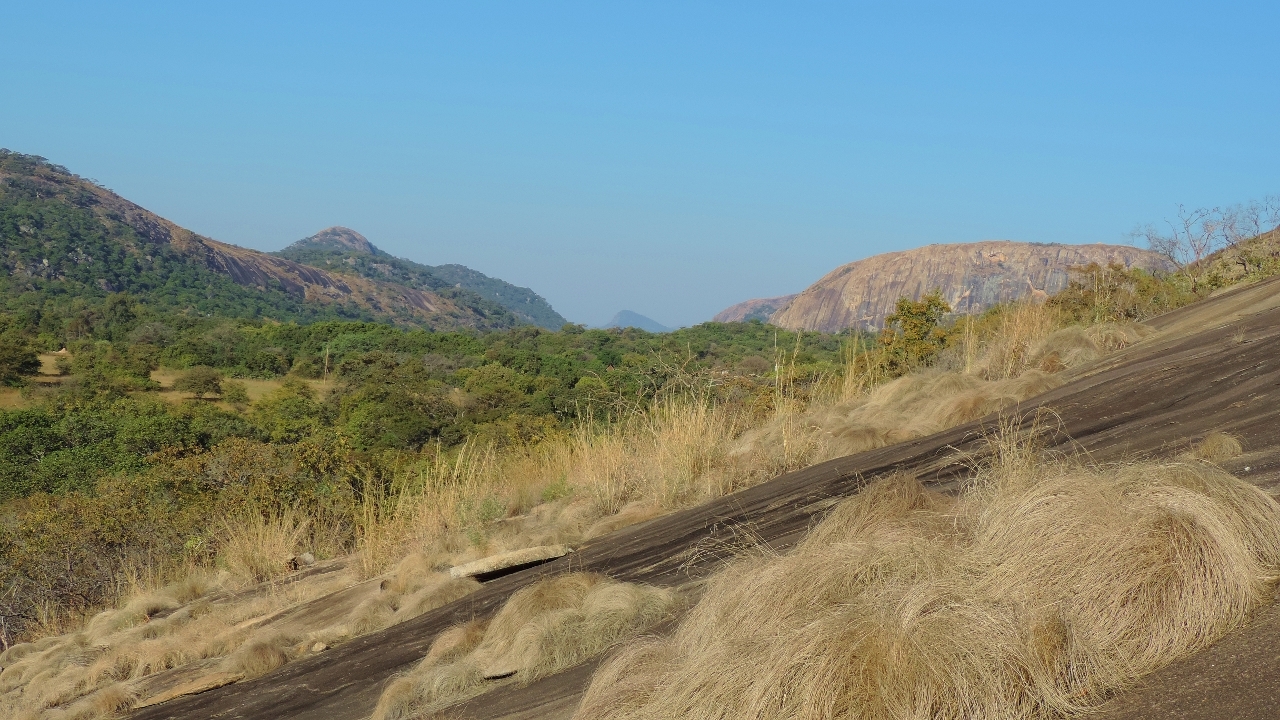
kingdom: Plantae
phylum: Tracheophyta
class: Liliopsida
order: Poales
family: Cyperaceae
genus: Coleochloa
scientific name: Coleochloa setifera
